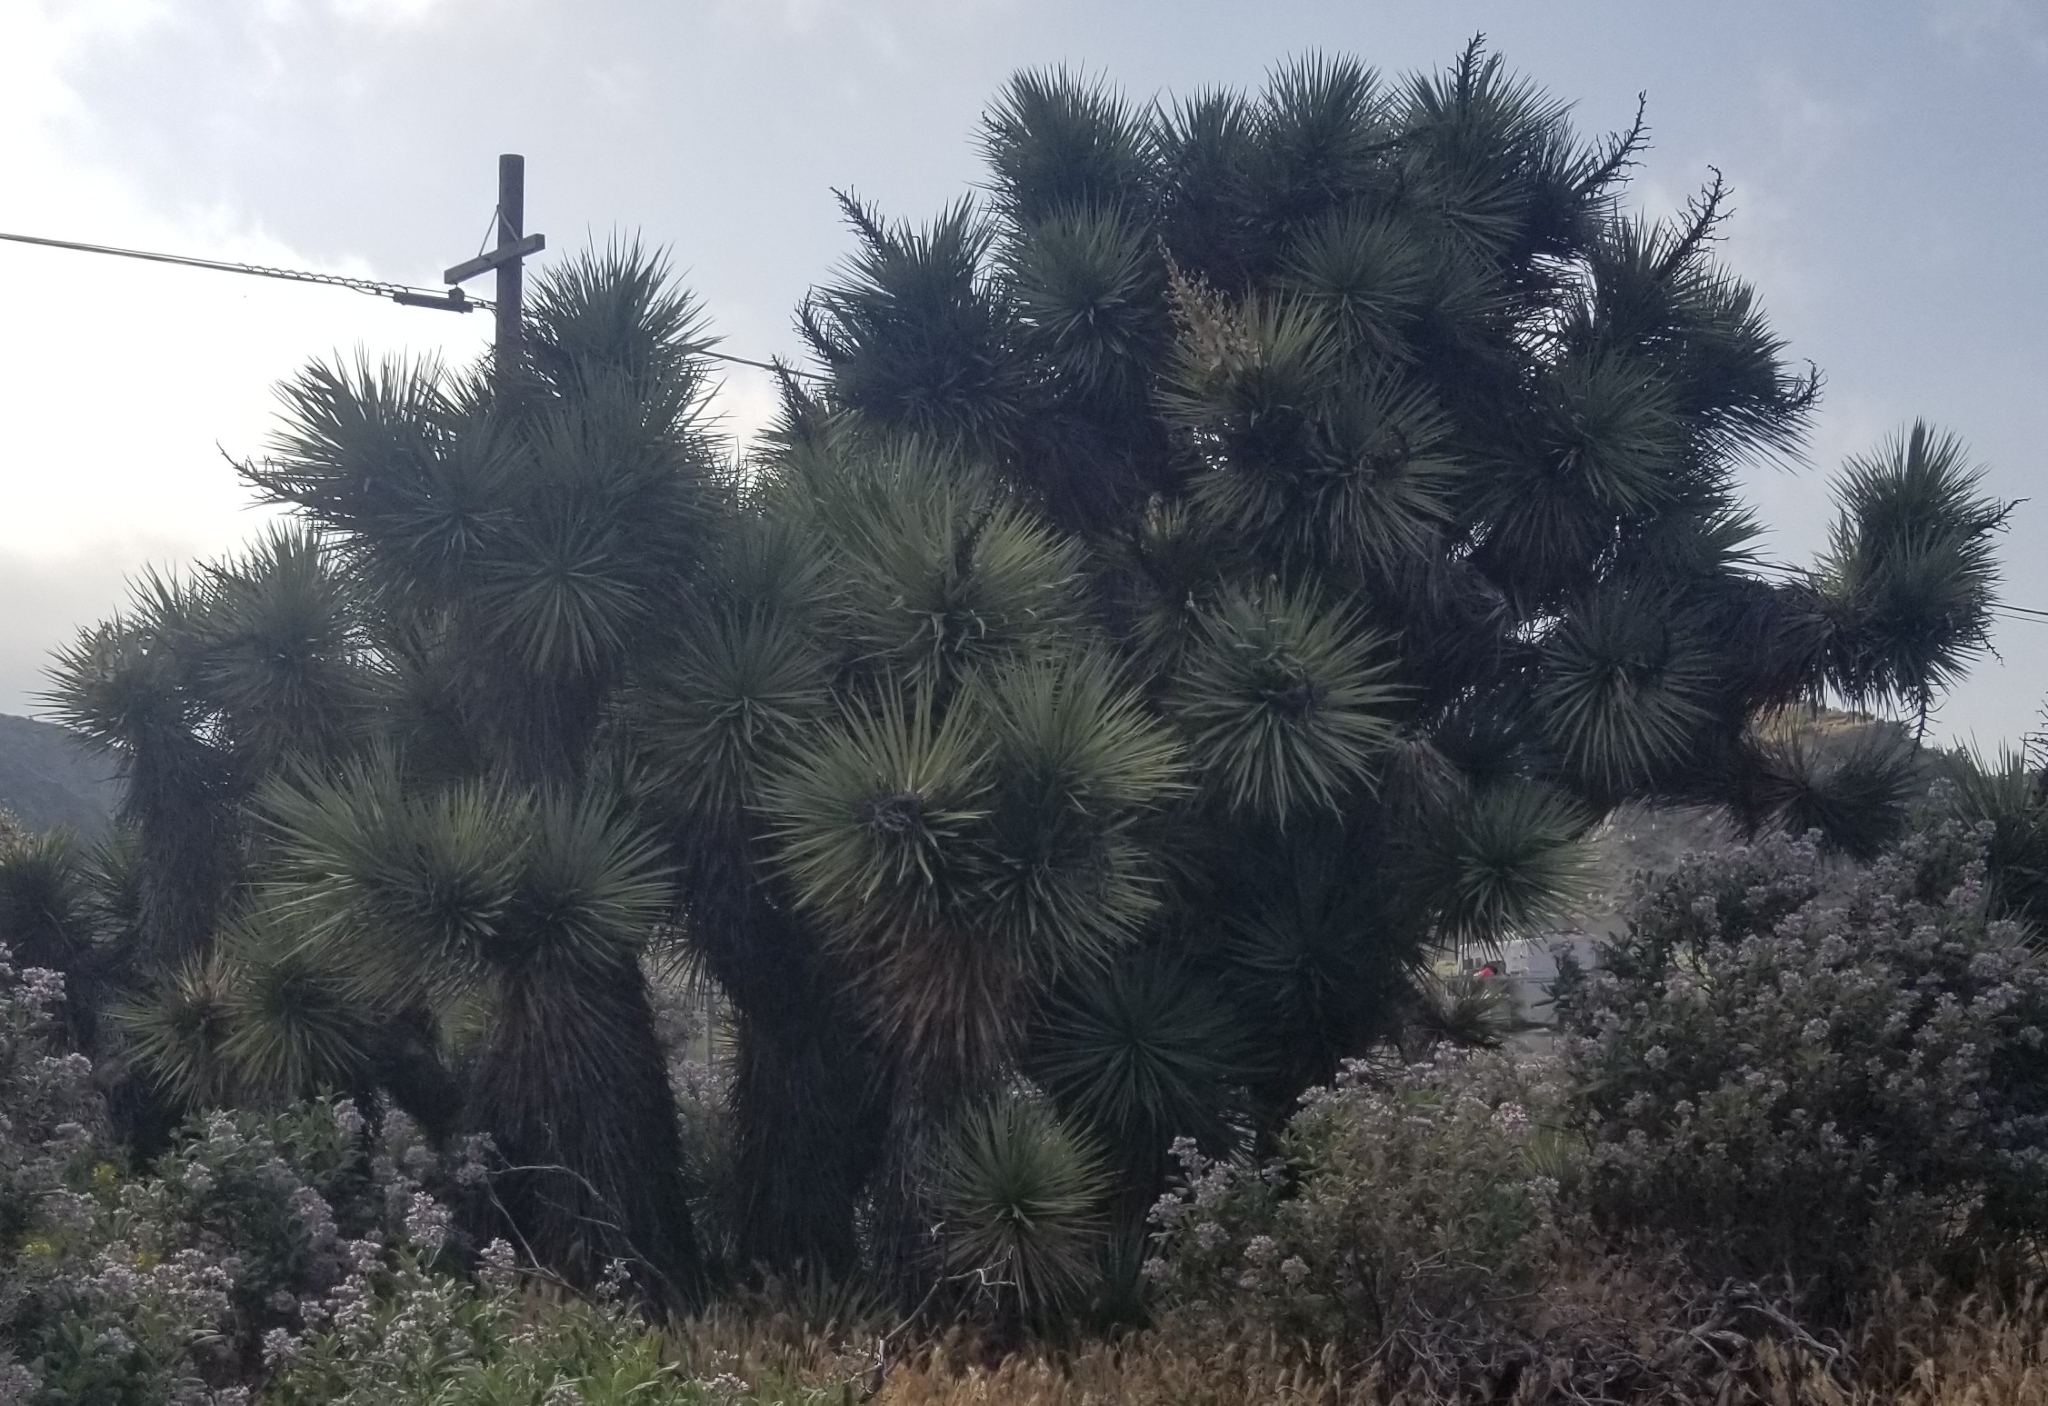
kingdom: Plantae
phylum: Tracheophyta
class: Liliopsida
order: Asparagales
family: Asparagaceae
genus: Yucca
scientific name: Yucca brevifolia
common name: Joshua tree
